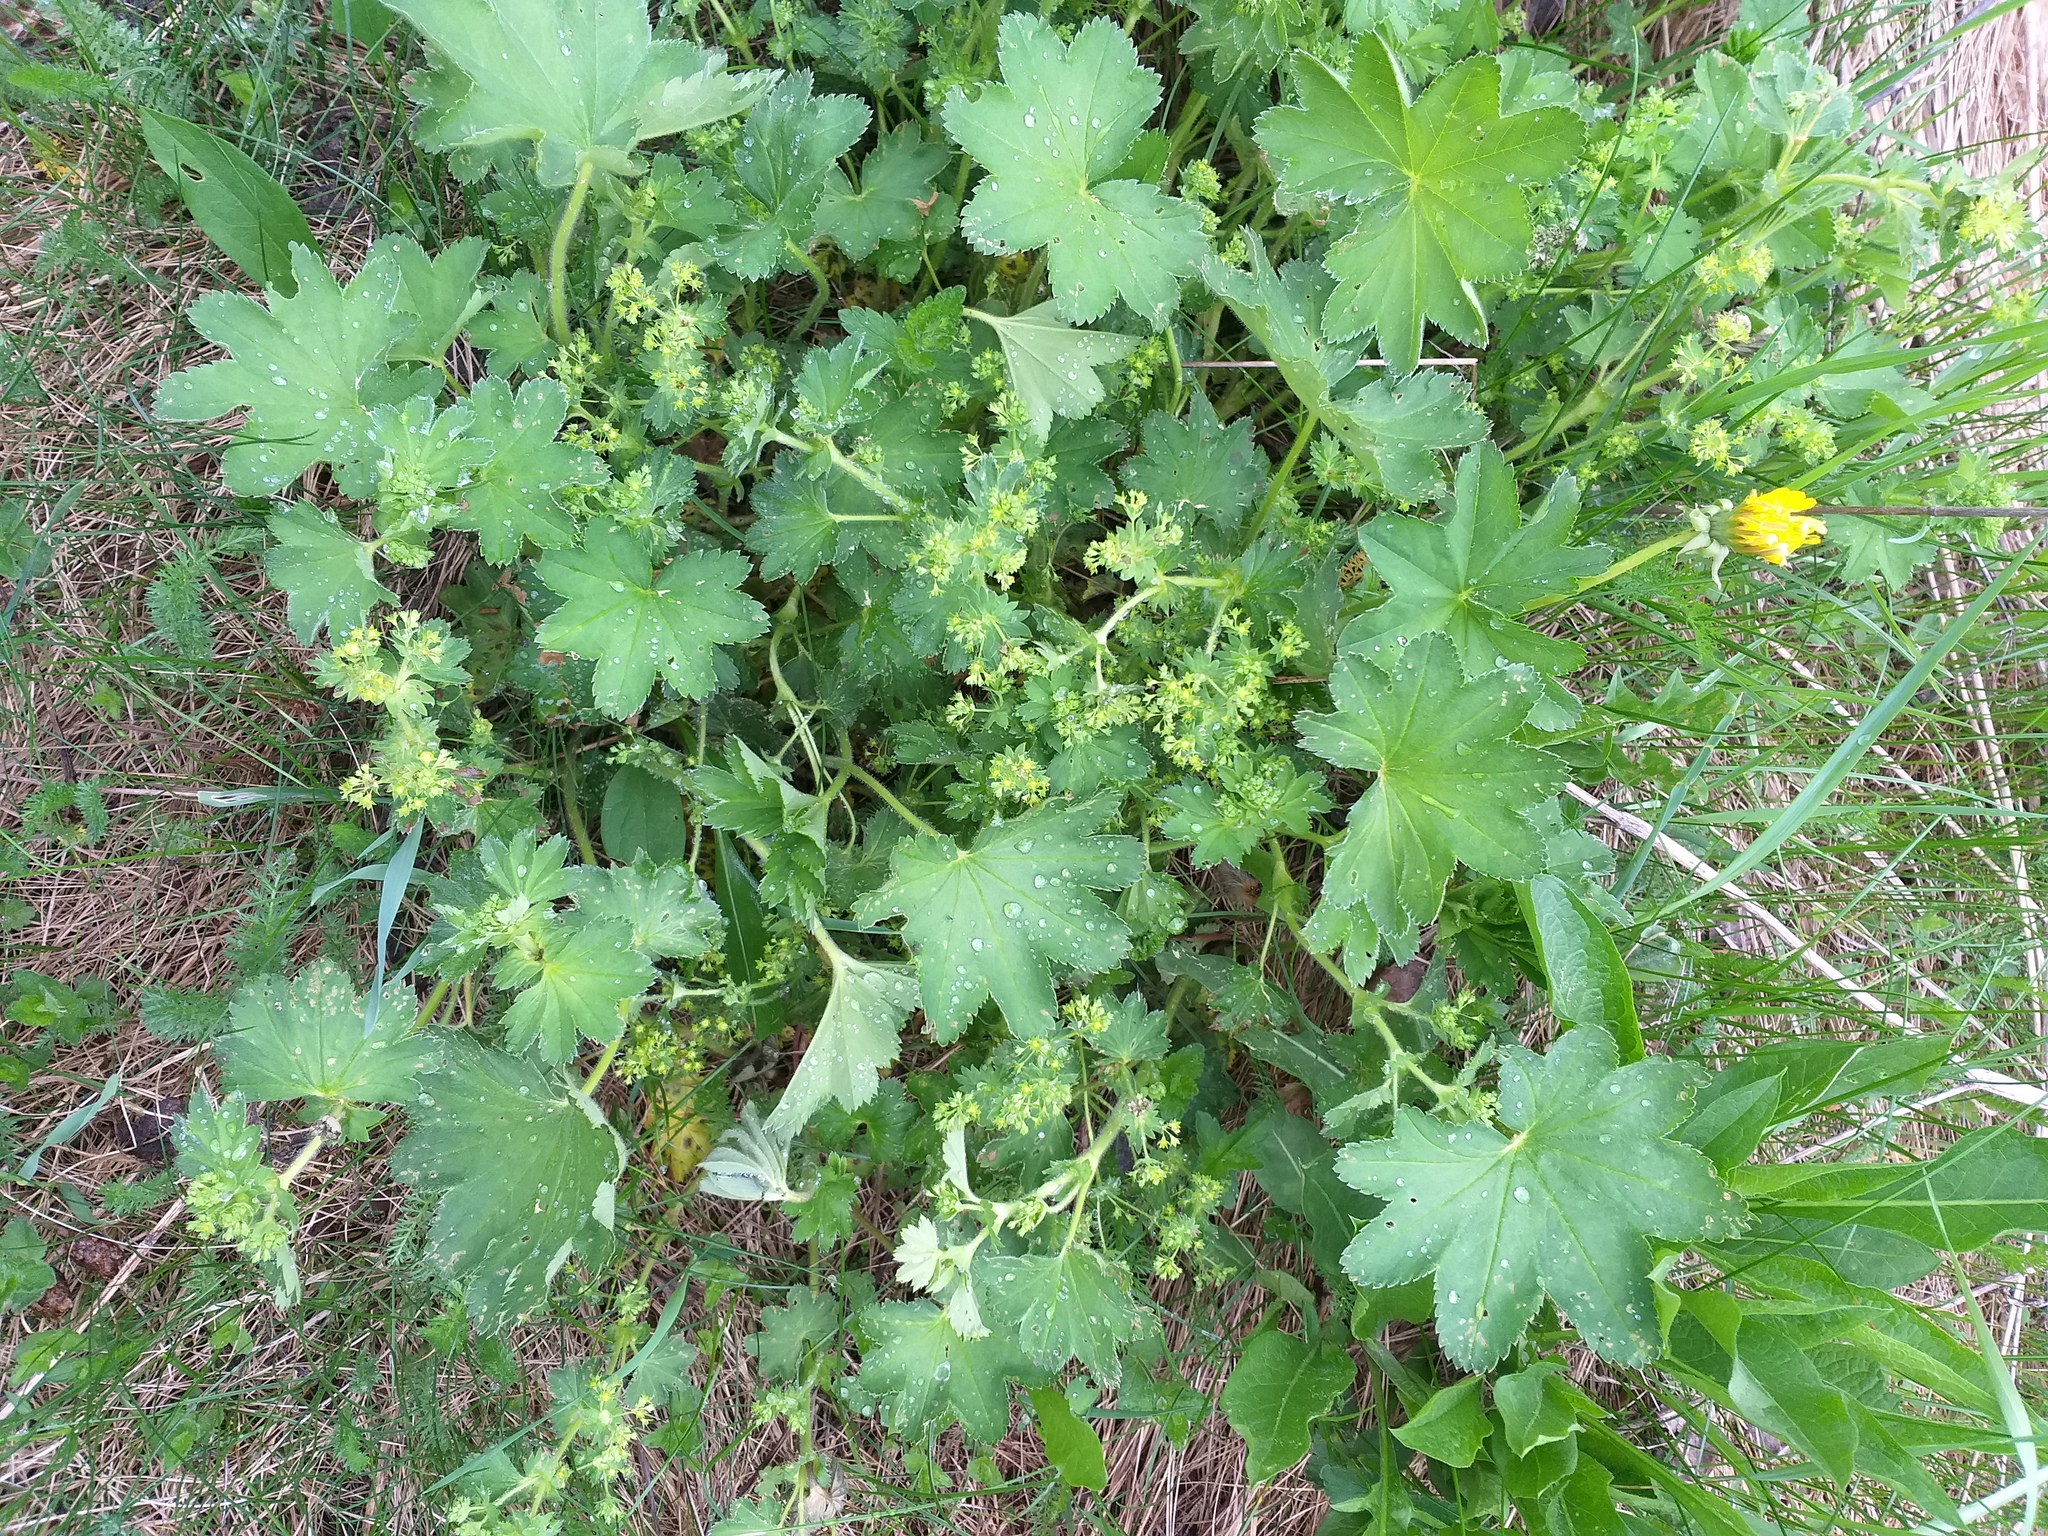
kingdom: Plantae
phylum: Tracheophyta
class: Magnoliopsida
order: Rosales
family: Rosaceae
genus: Alchemilla
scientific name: Alchemilla micans
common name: Gleaming lady's mantle
